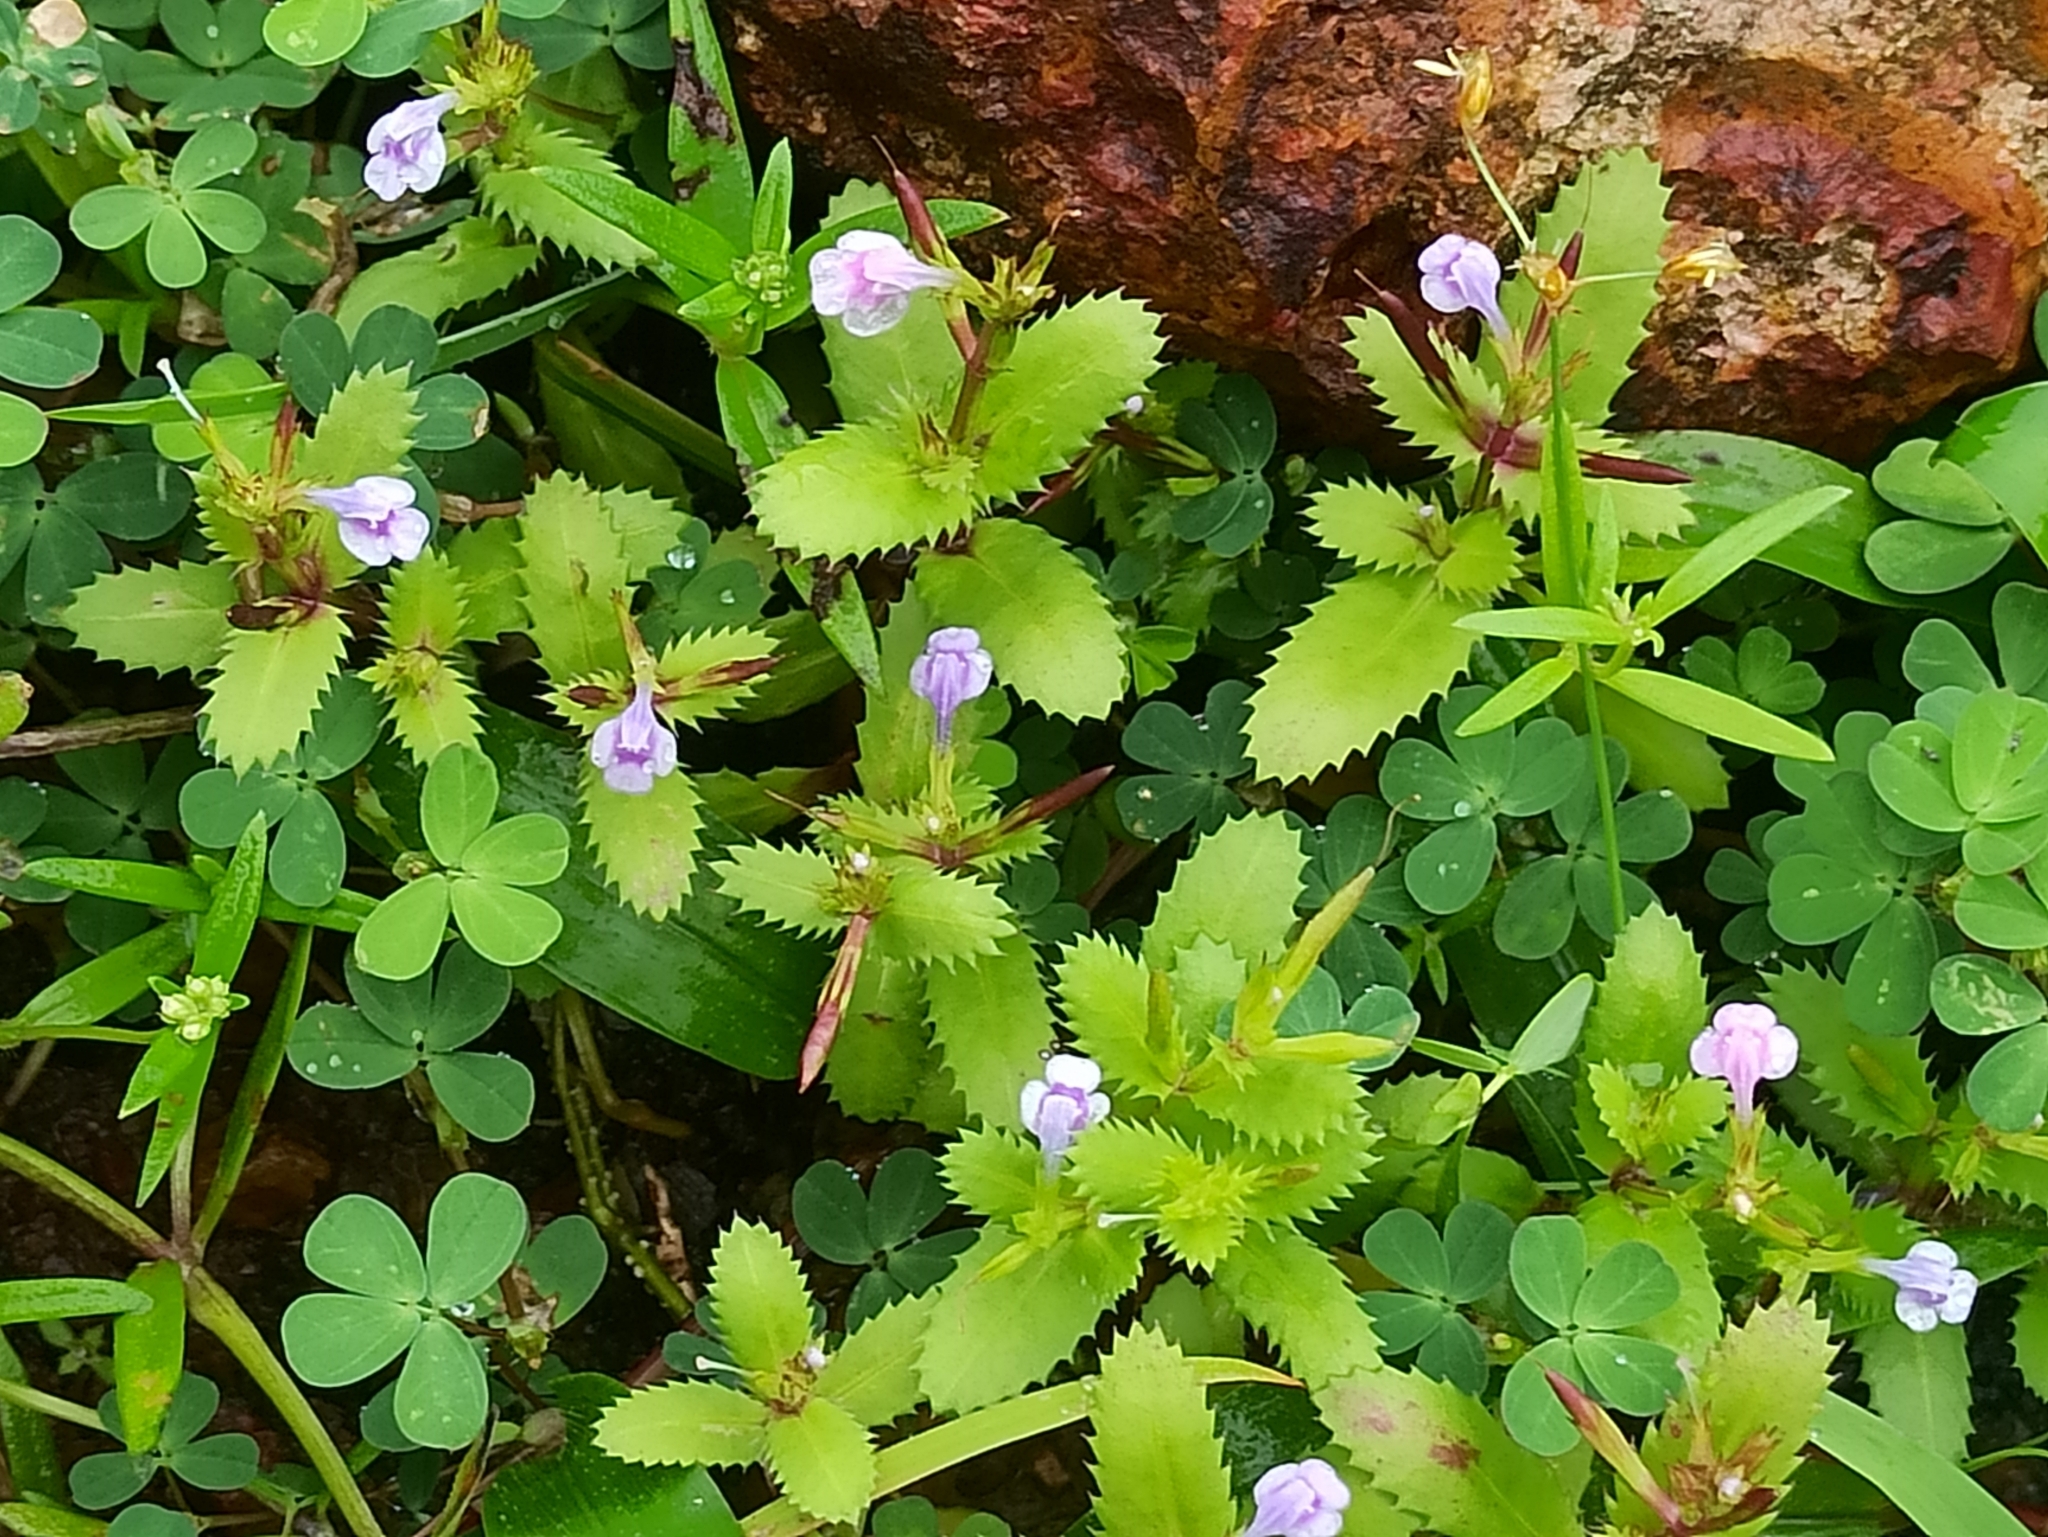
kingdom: Plantae
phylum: Tracheophyta
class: Magnoliopsida
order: Lamiales
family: Linderniaceae
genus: Bonnaya
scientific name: Bonnaya ciliata
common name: Hairy slitwort
